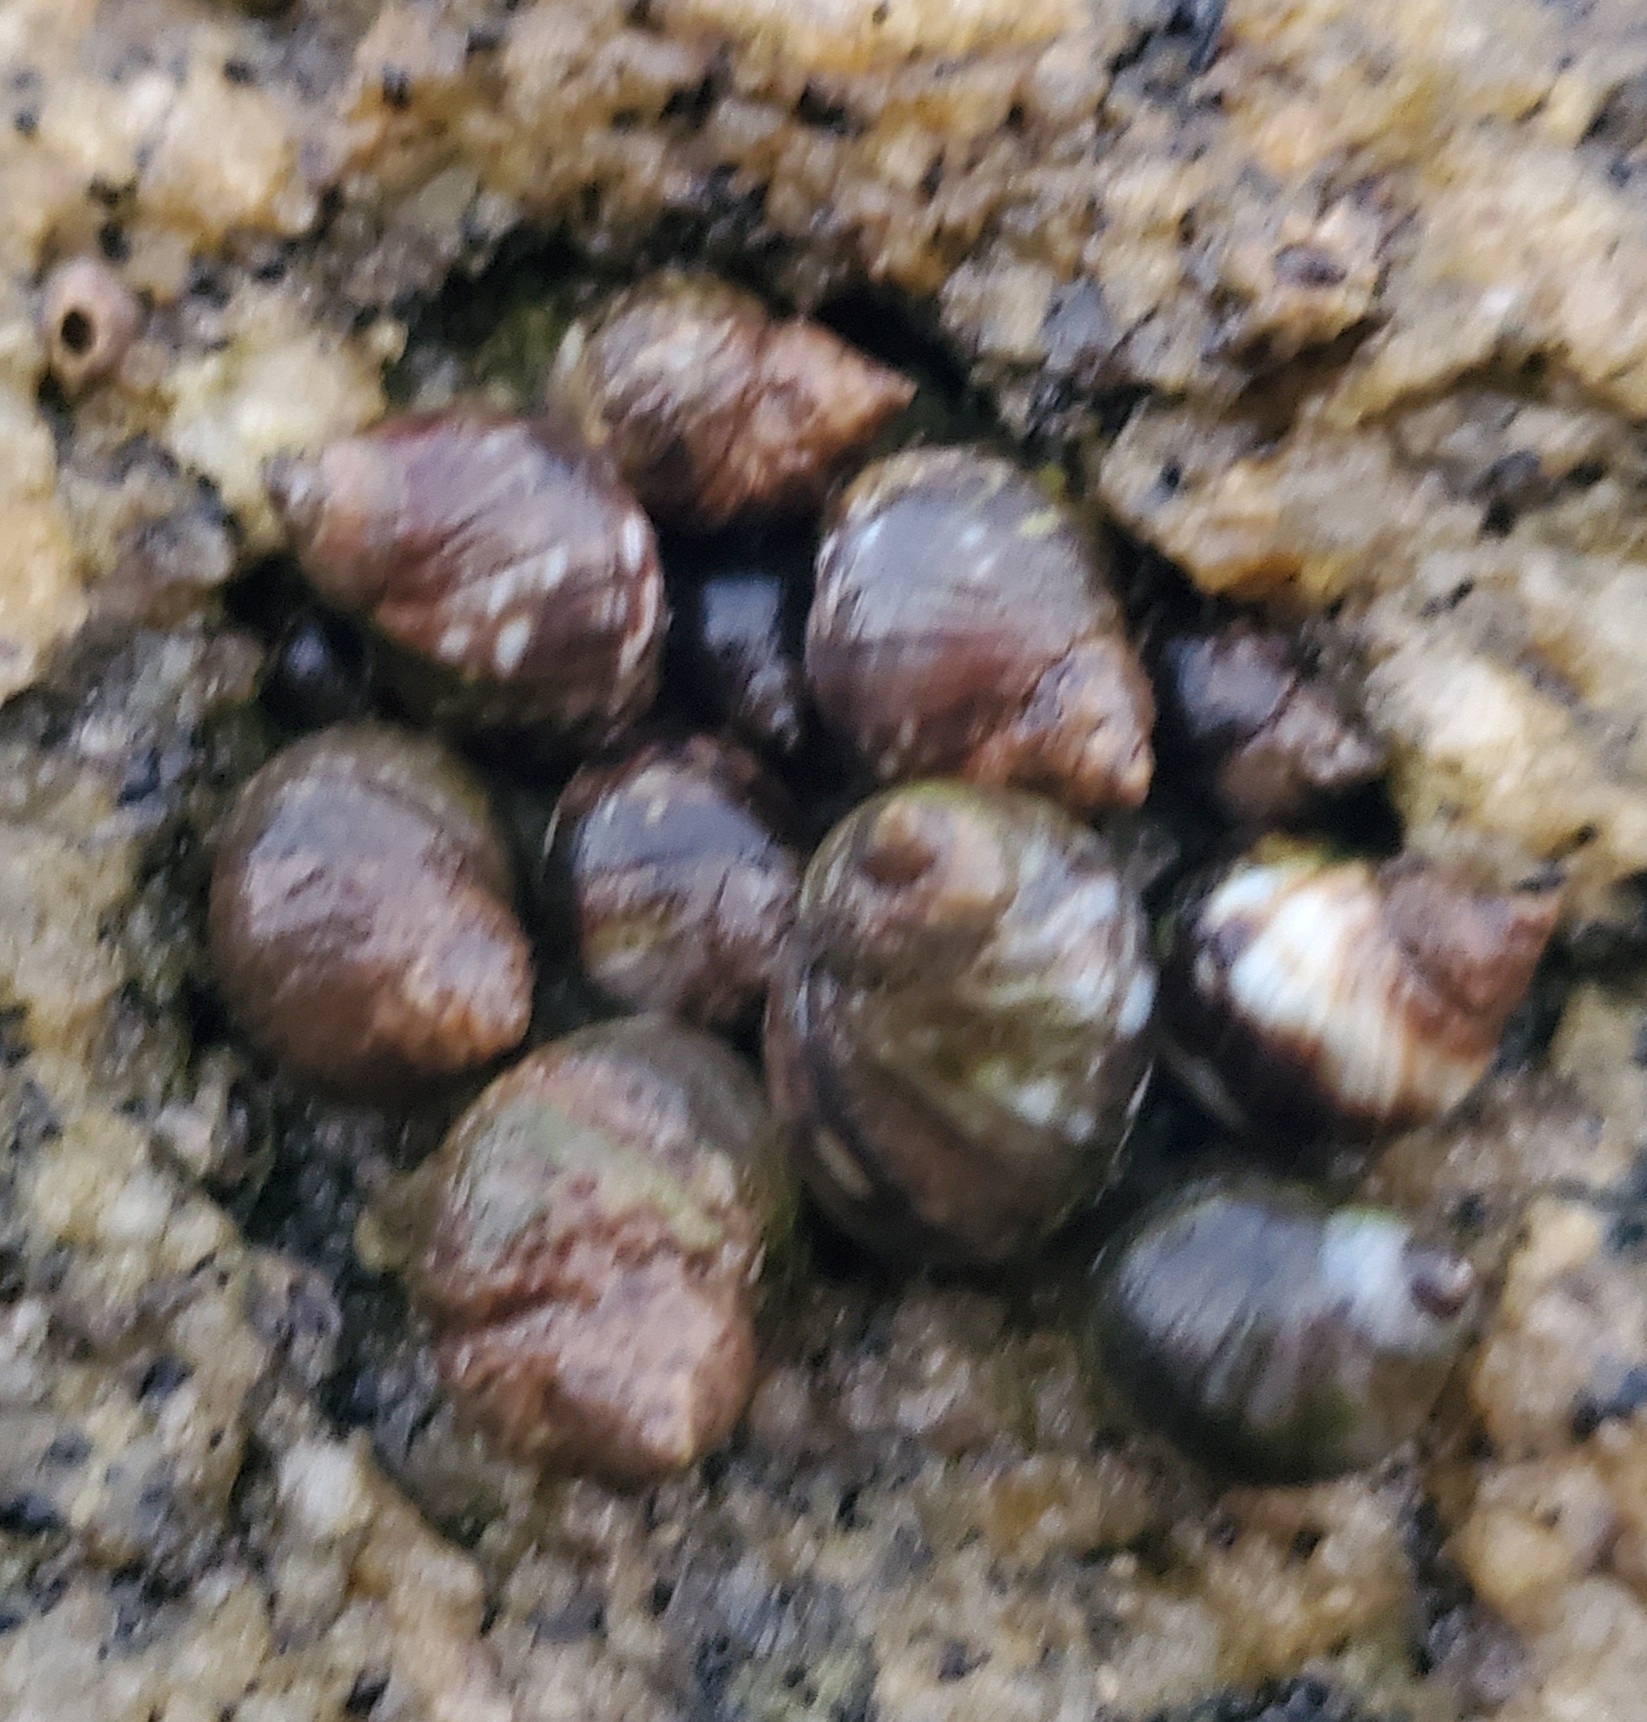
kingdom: Animalia
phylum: Mollusca
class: Gastropoda
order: Littorinimorpha
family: Littorinidae
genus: Littorina
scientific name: Littorina keenae
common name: Eroded periwinkle
